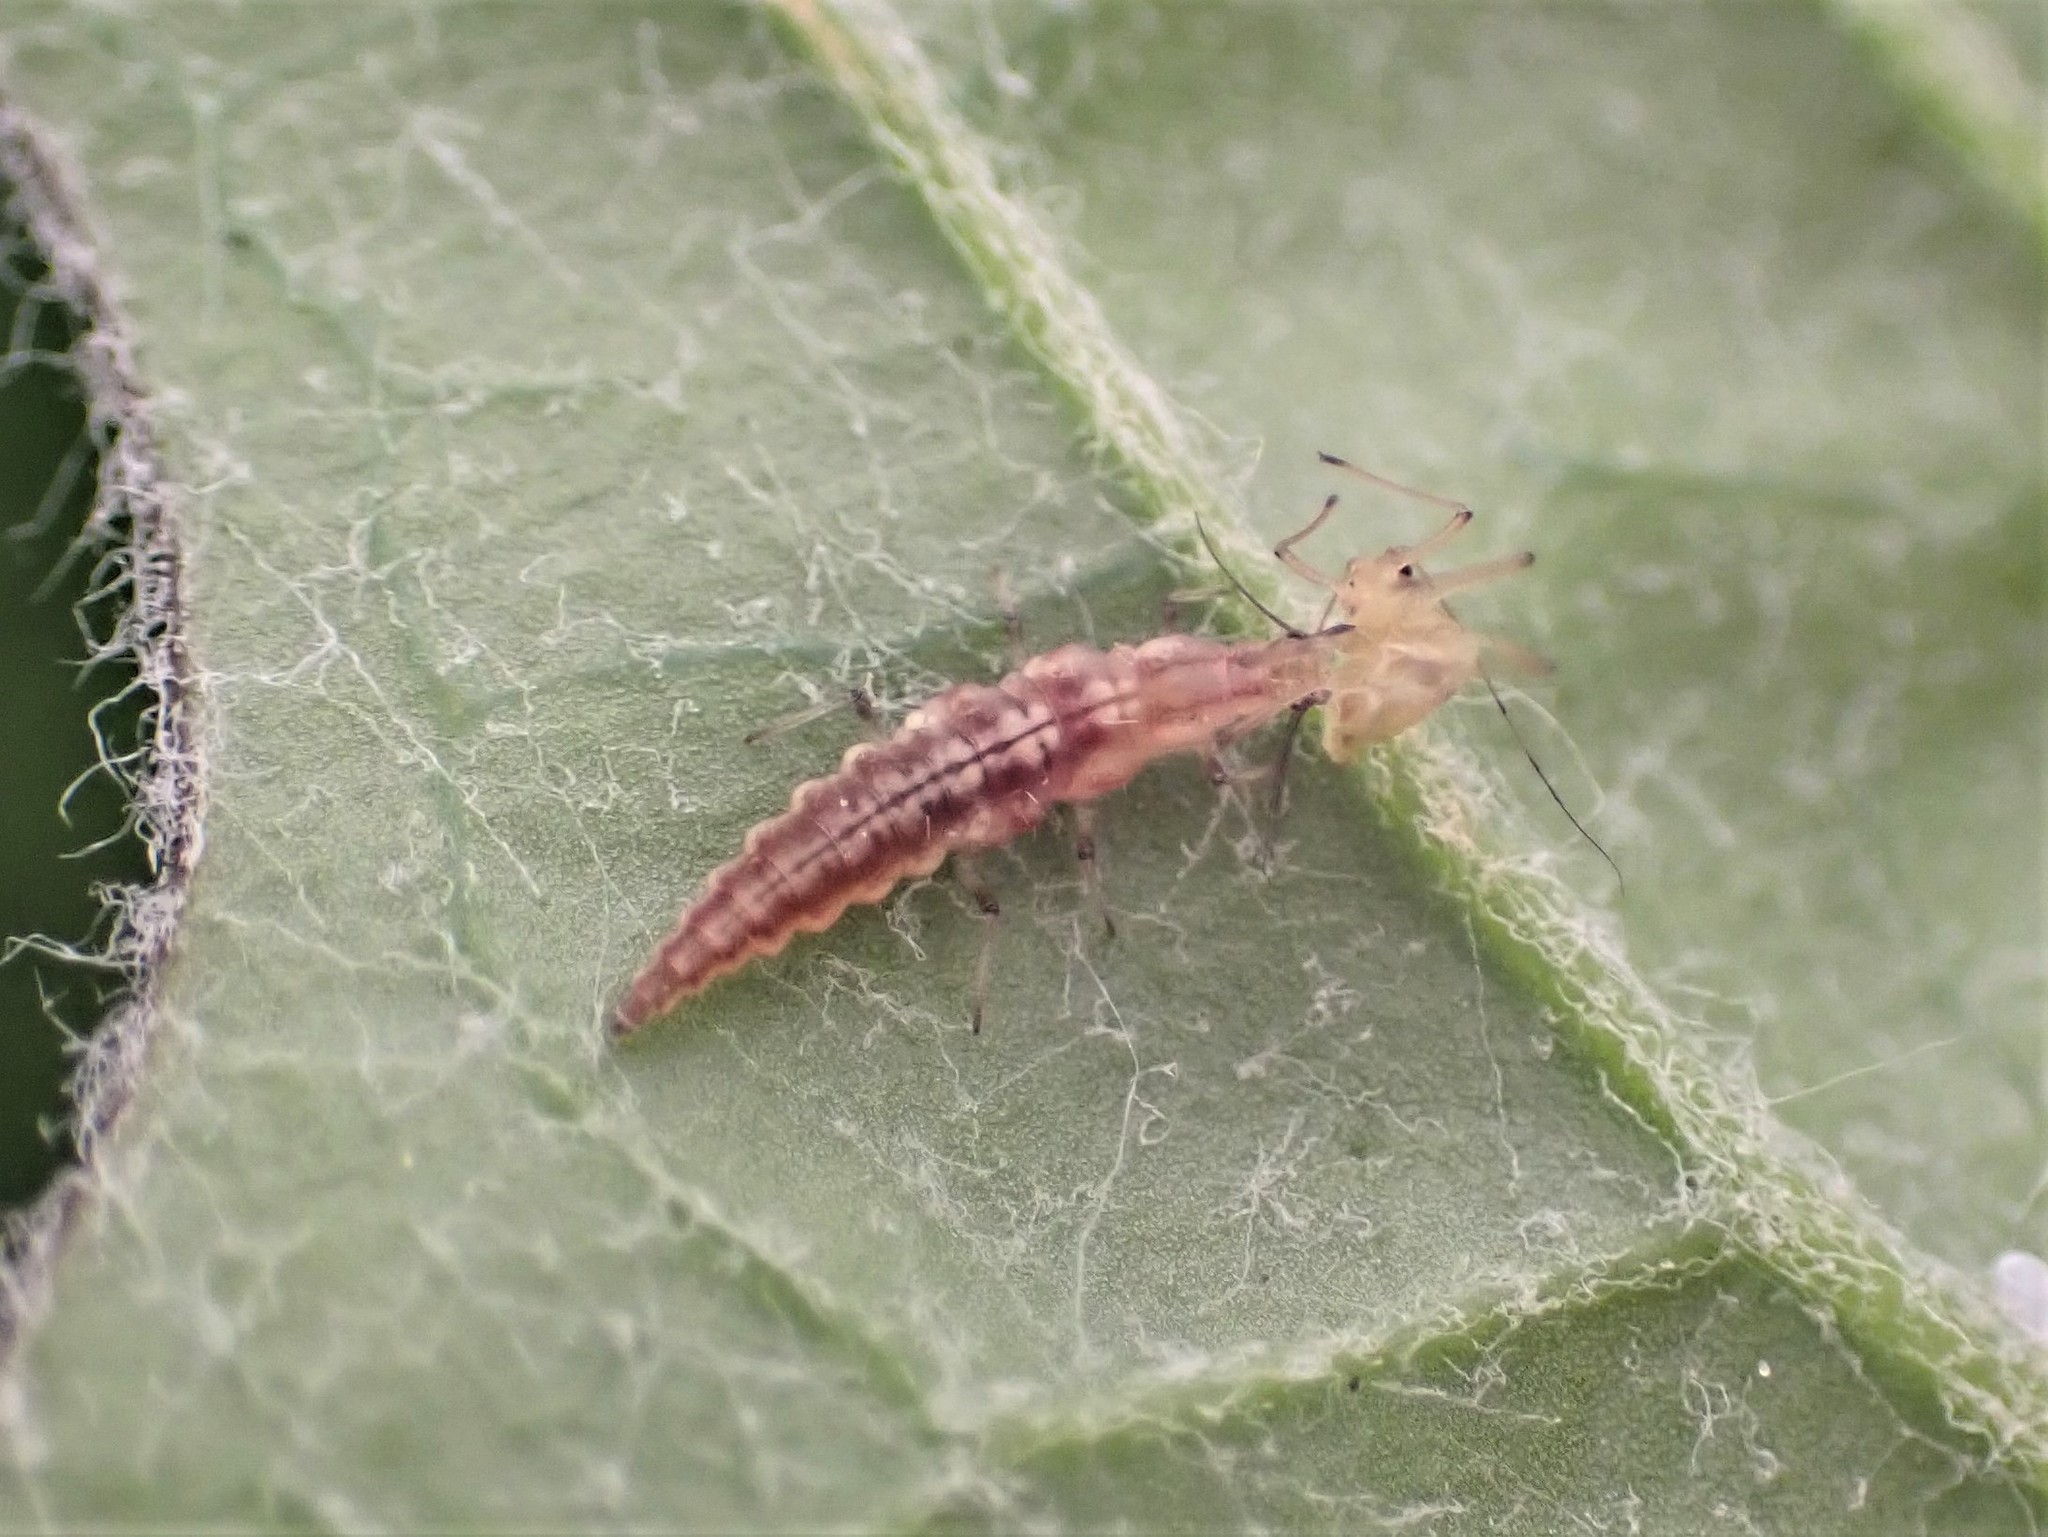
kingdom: Animalia
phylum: Arthropoda
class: Insecta
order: Neuroptera
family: Hemerobiidae
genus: Micromus
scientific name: Micromus tasmaniae
